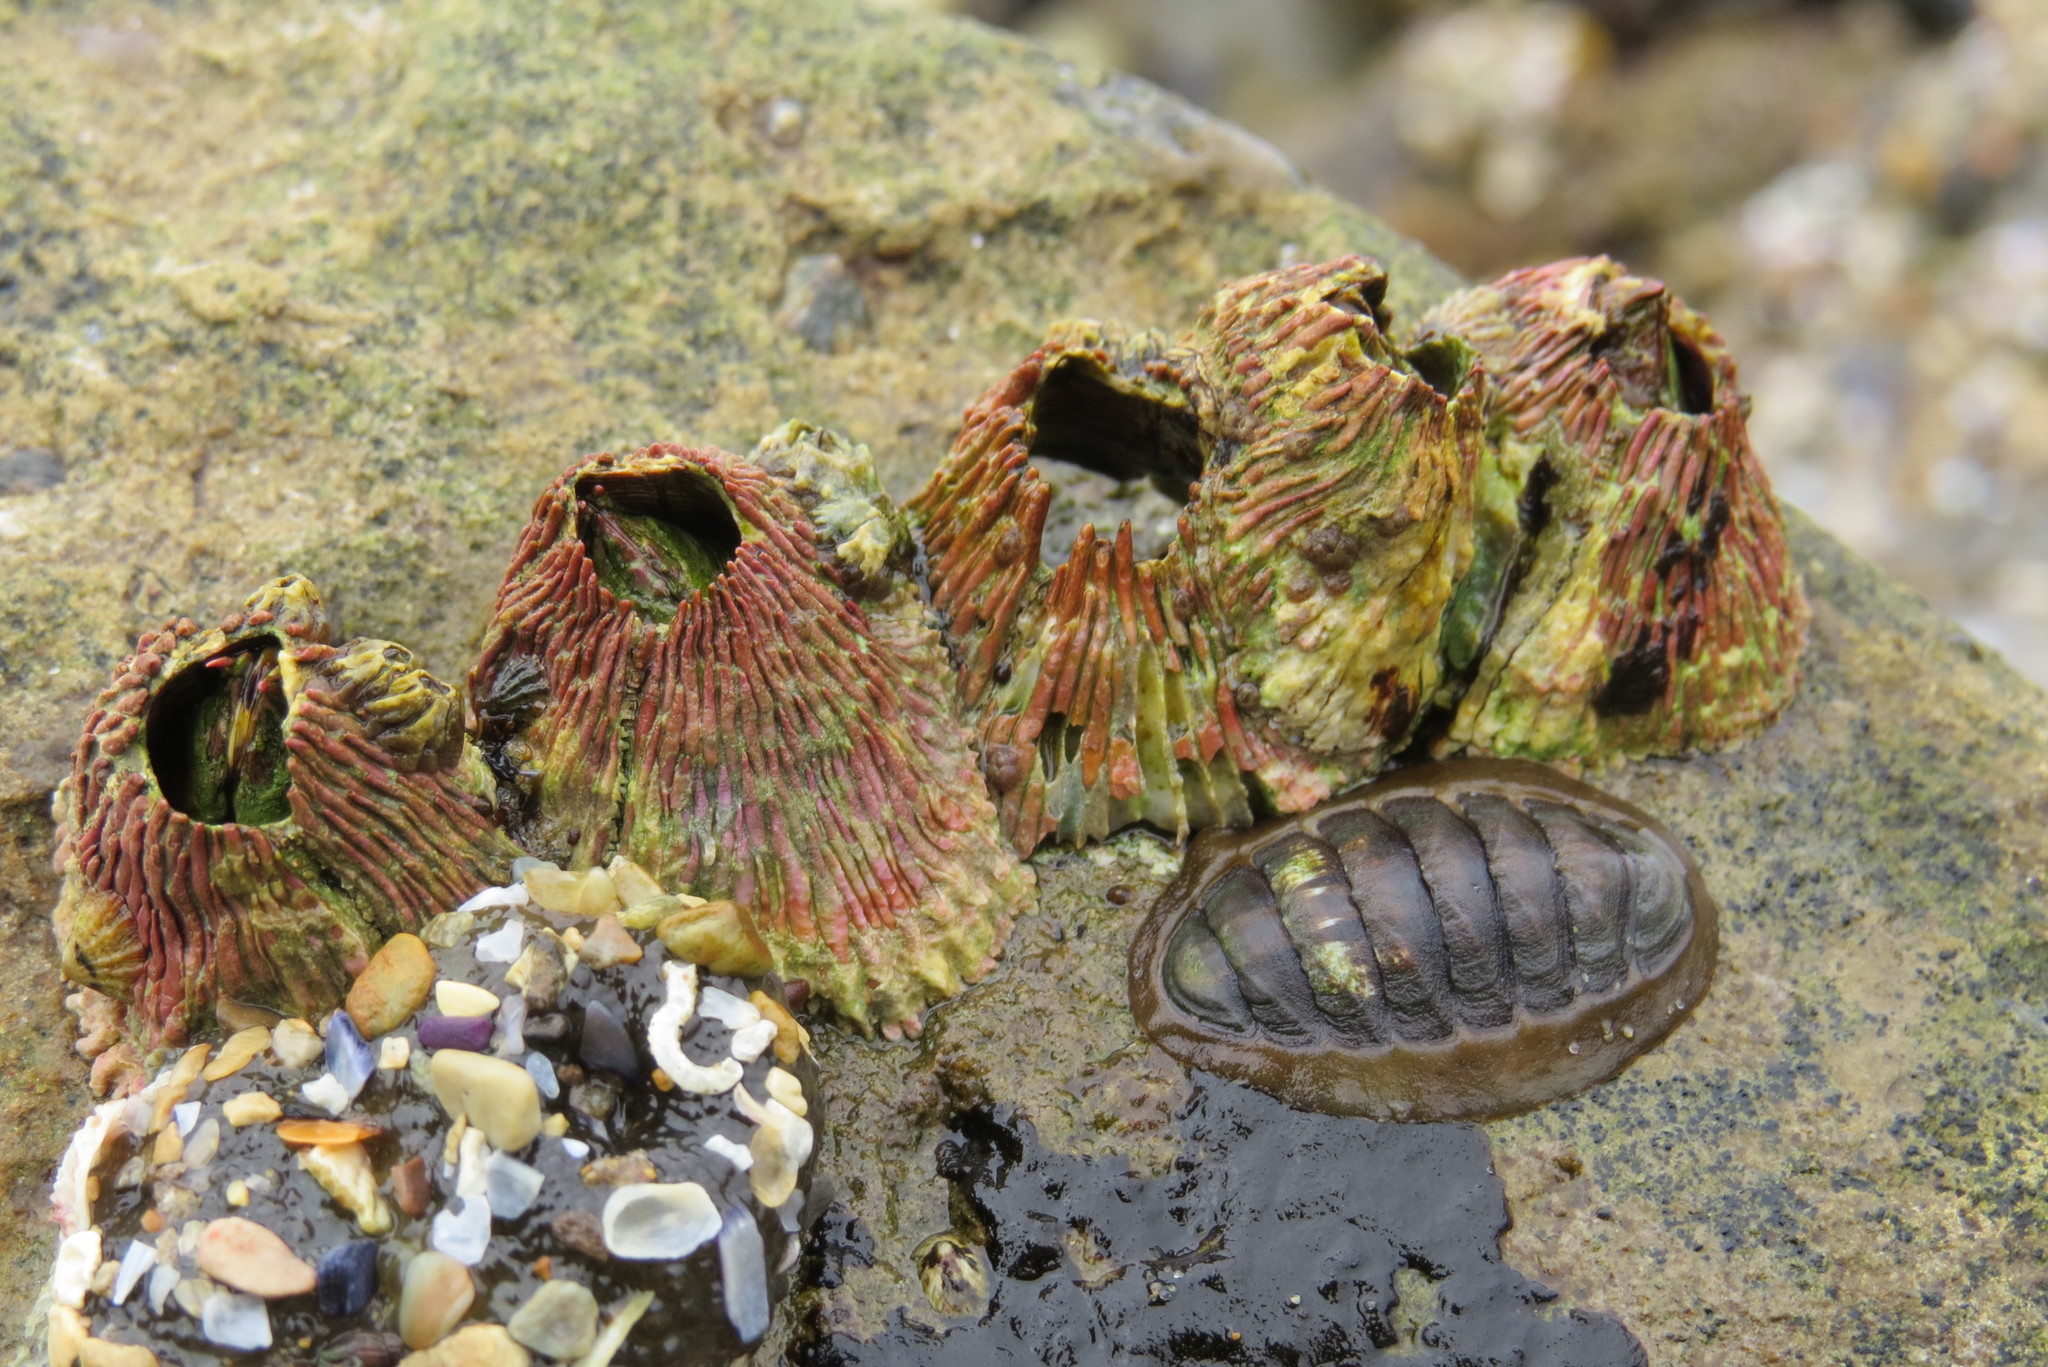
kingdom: Animalia
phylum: Arthropoda
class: Maxillopoda
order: Sessilia
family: Tetraclitidae
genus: Tetraclita
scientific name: Tetraclita rubescens
